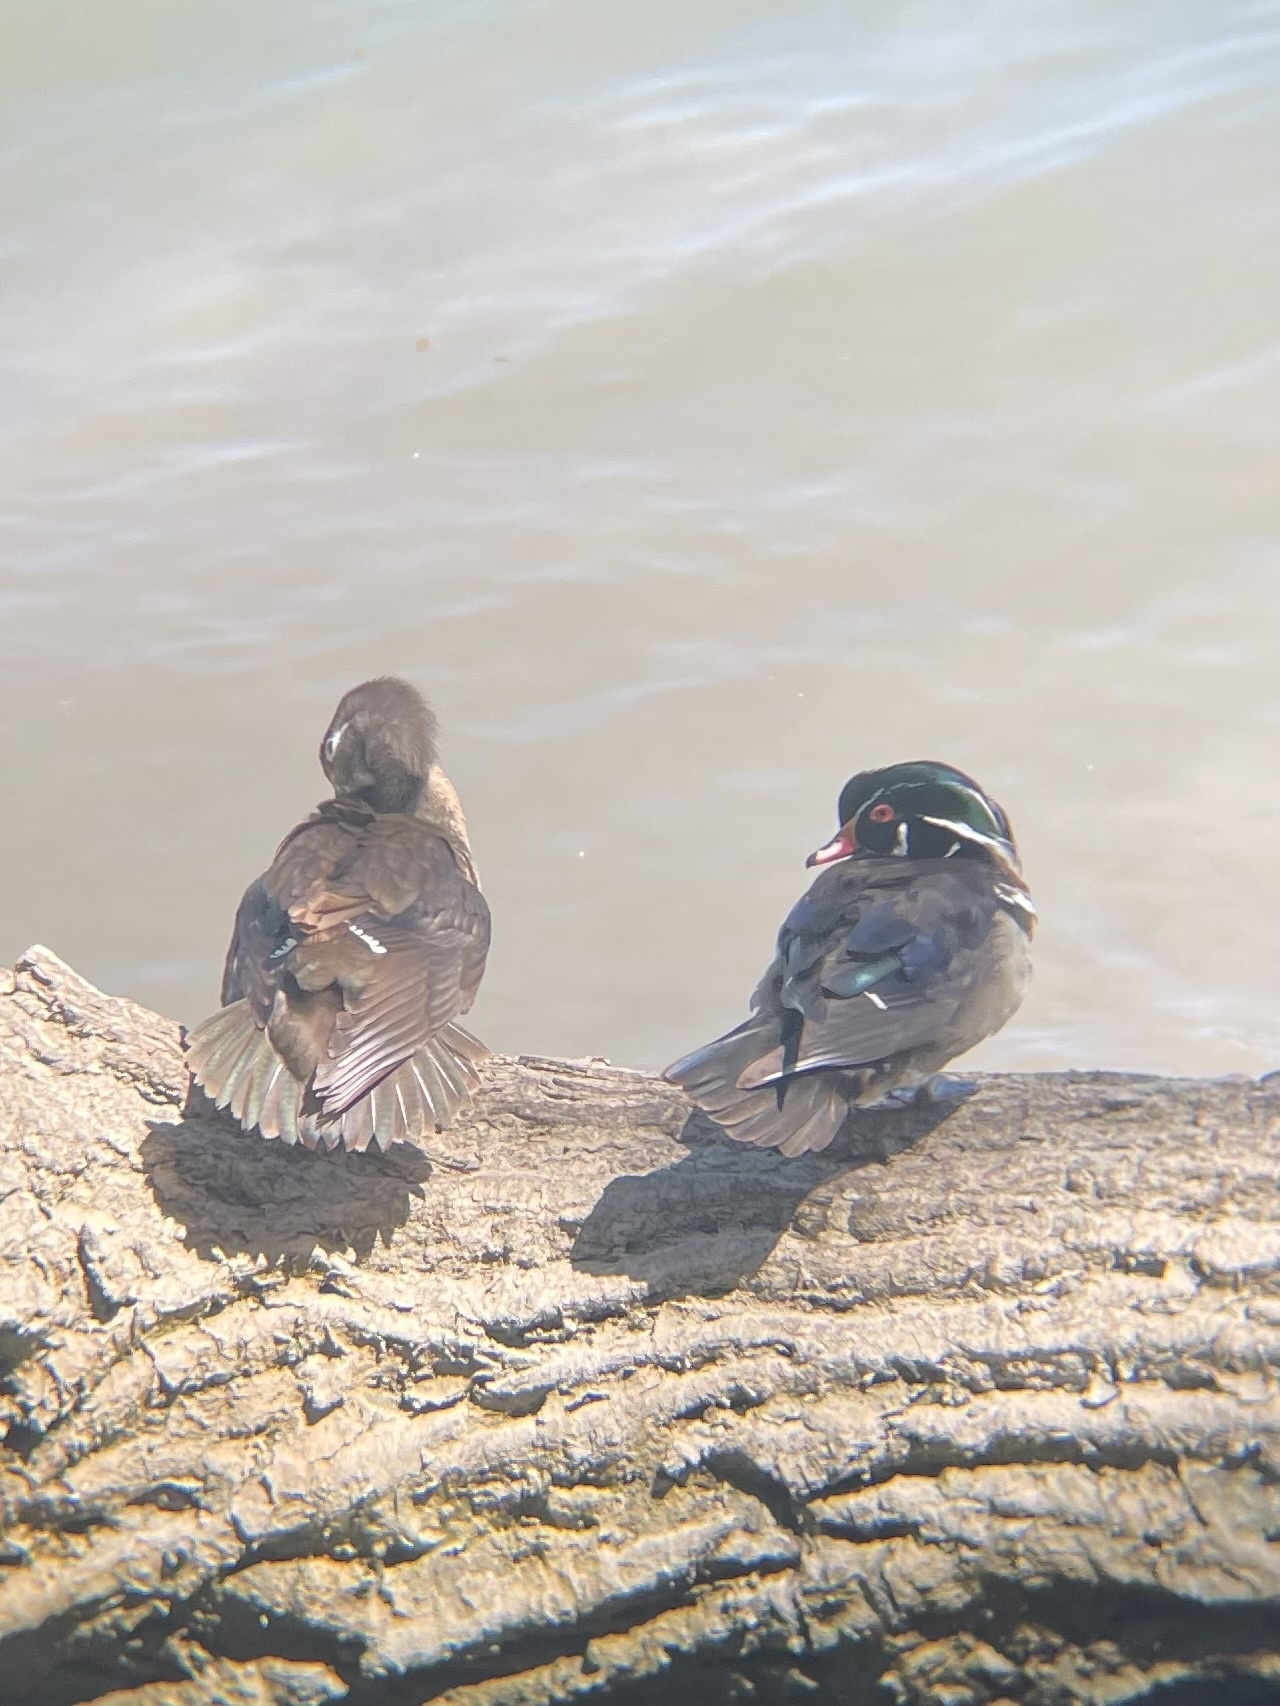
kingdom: Animalia
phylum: Chordata
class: Aves
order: Anseriformes
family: Anatidae
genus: Aix
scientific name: Aix sponsa
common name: Wood duck
